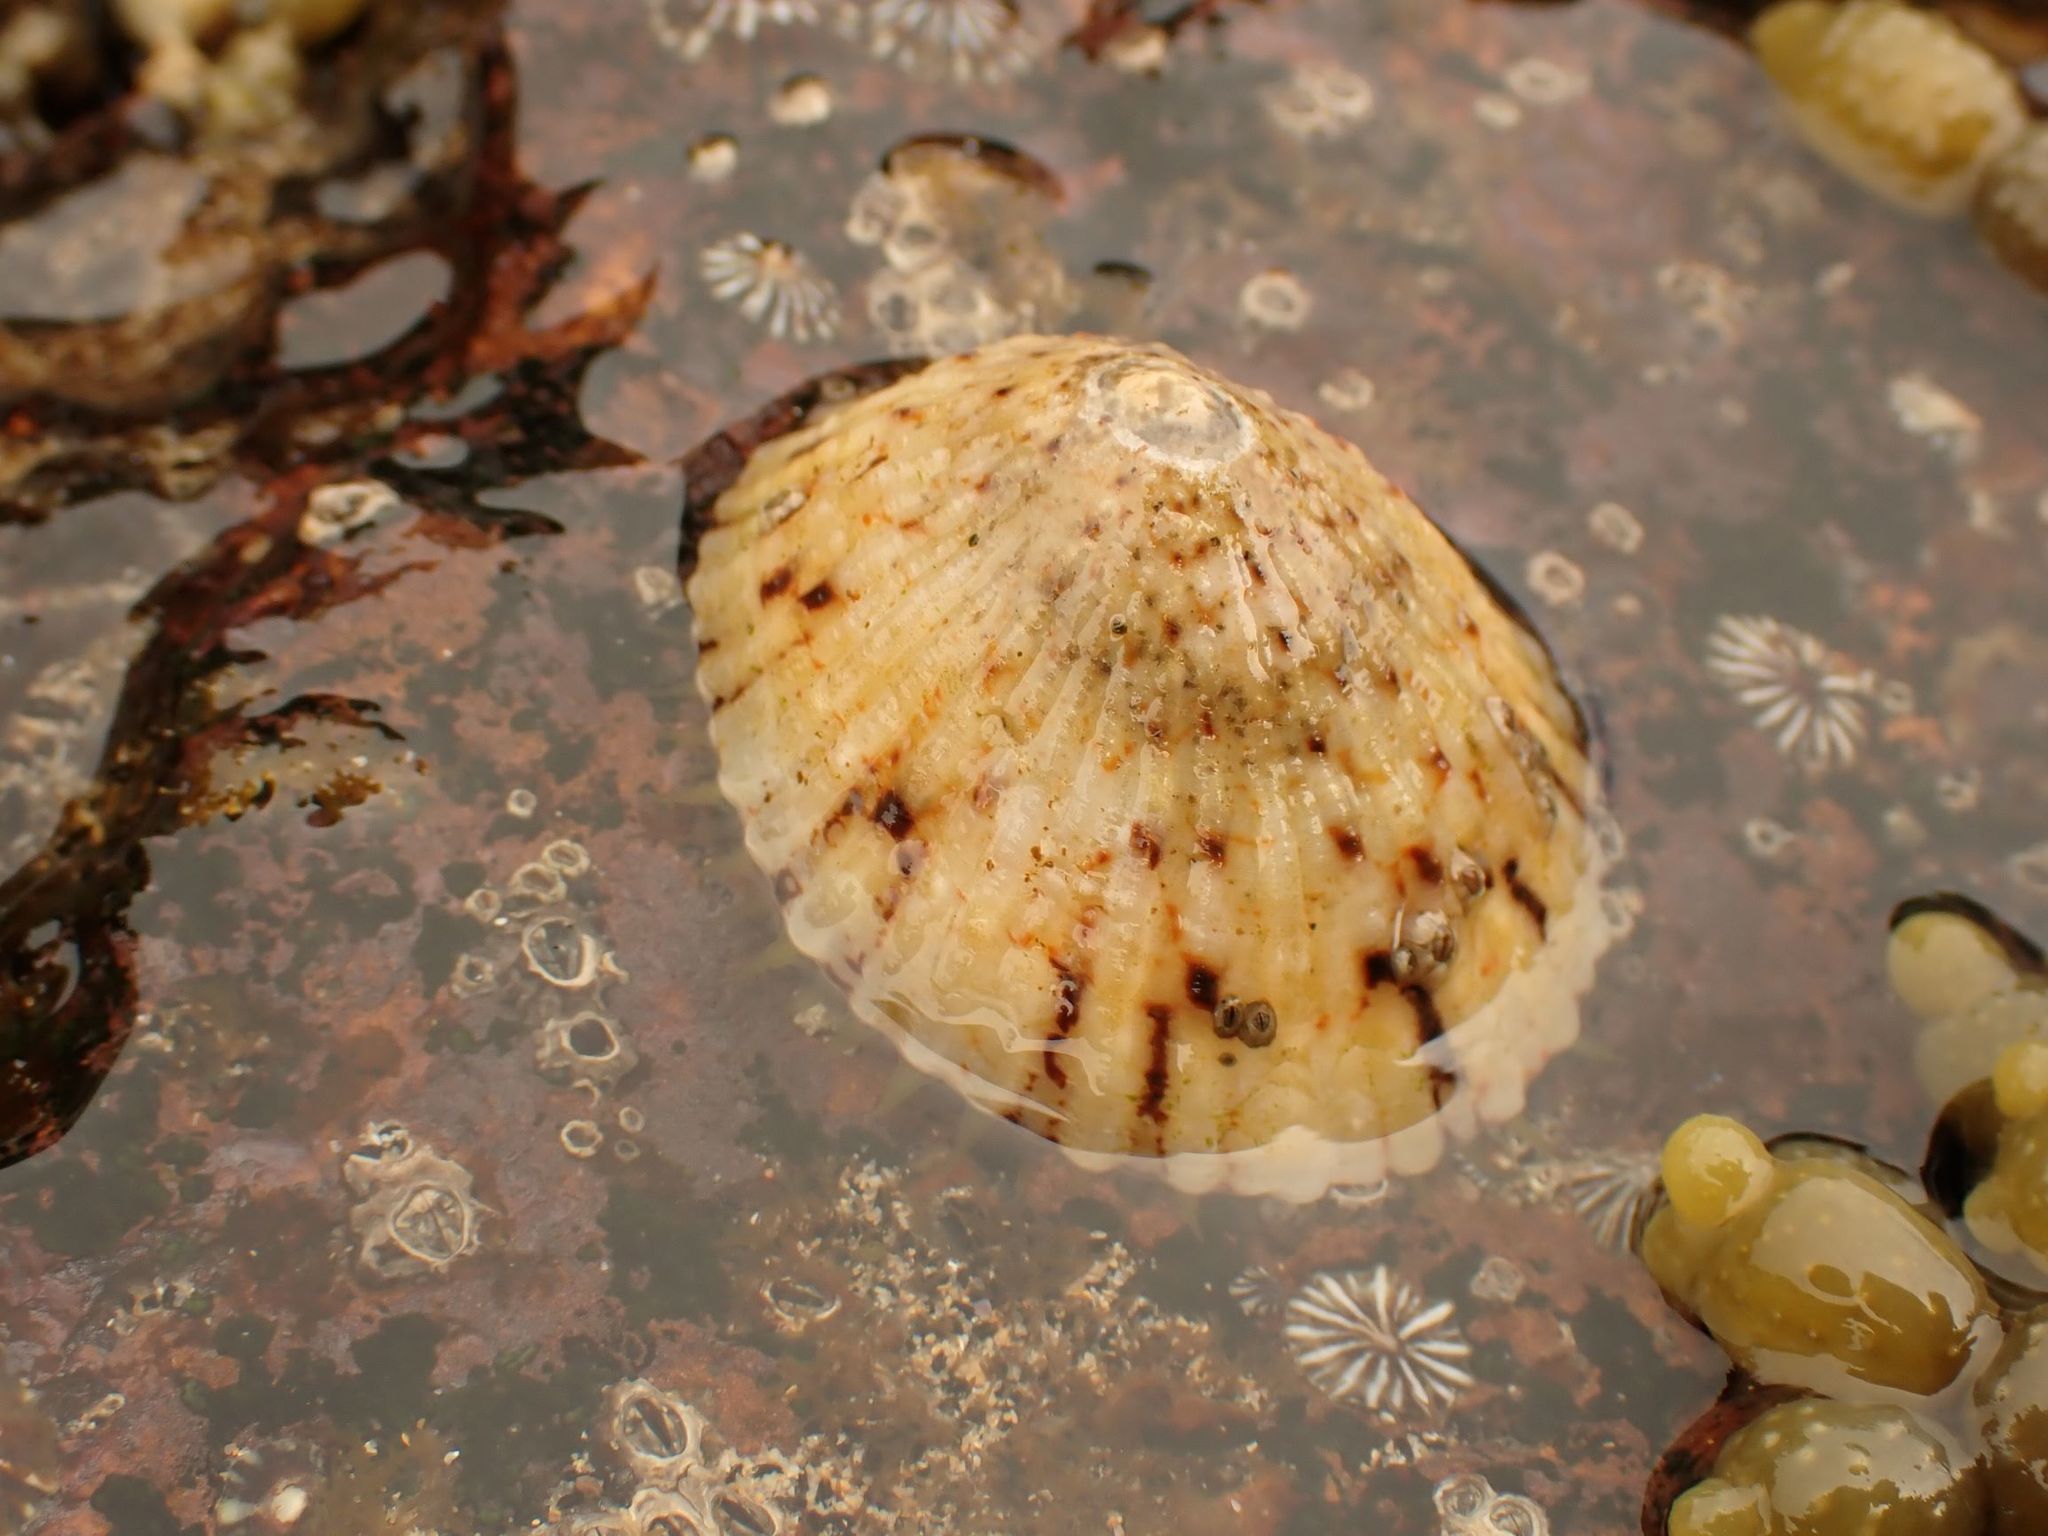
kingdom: Animalia
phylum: Mollusca
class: Gastropoda
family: Nacellidae
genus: Cellana
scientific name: Cellana tramoserica
